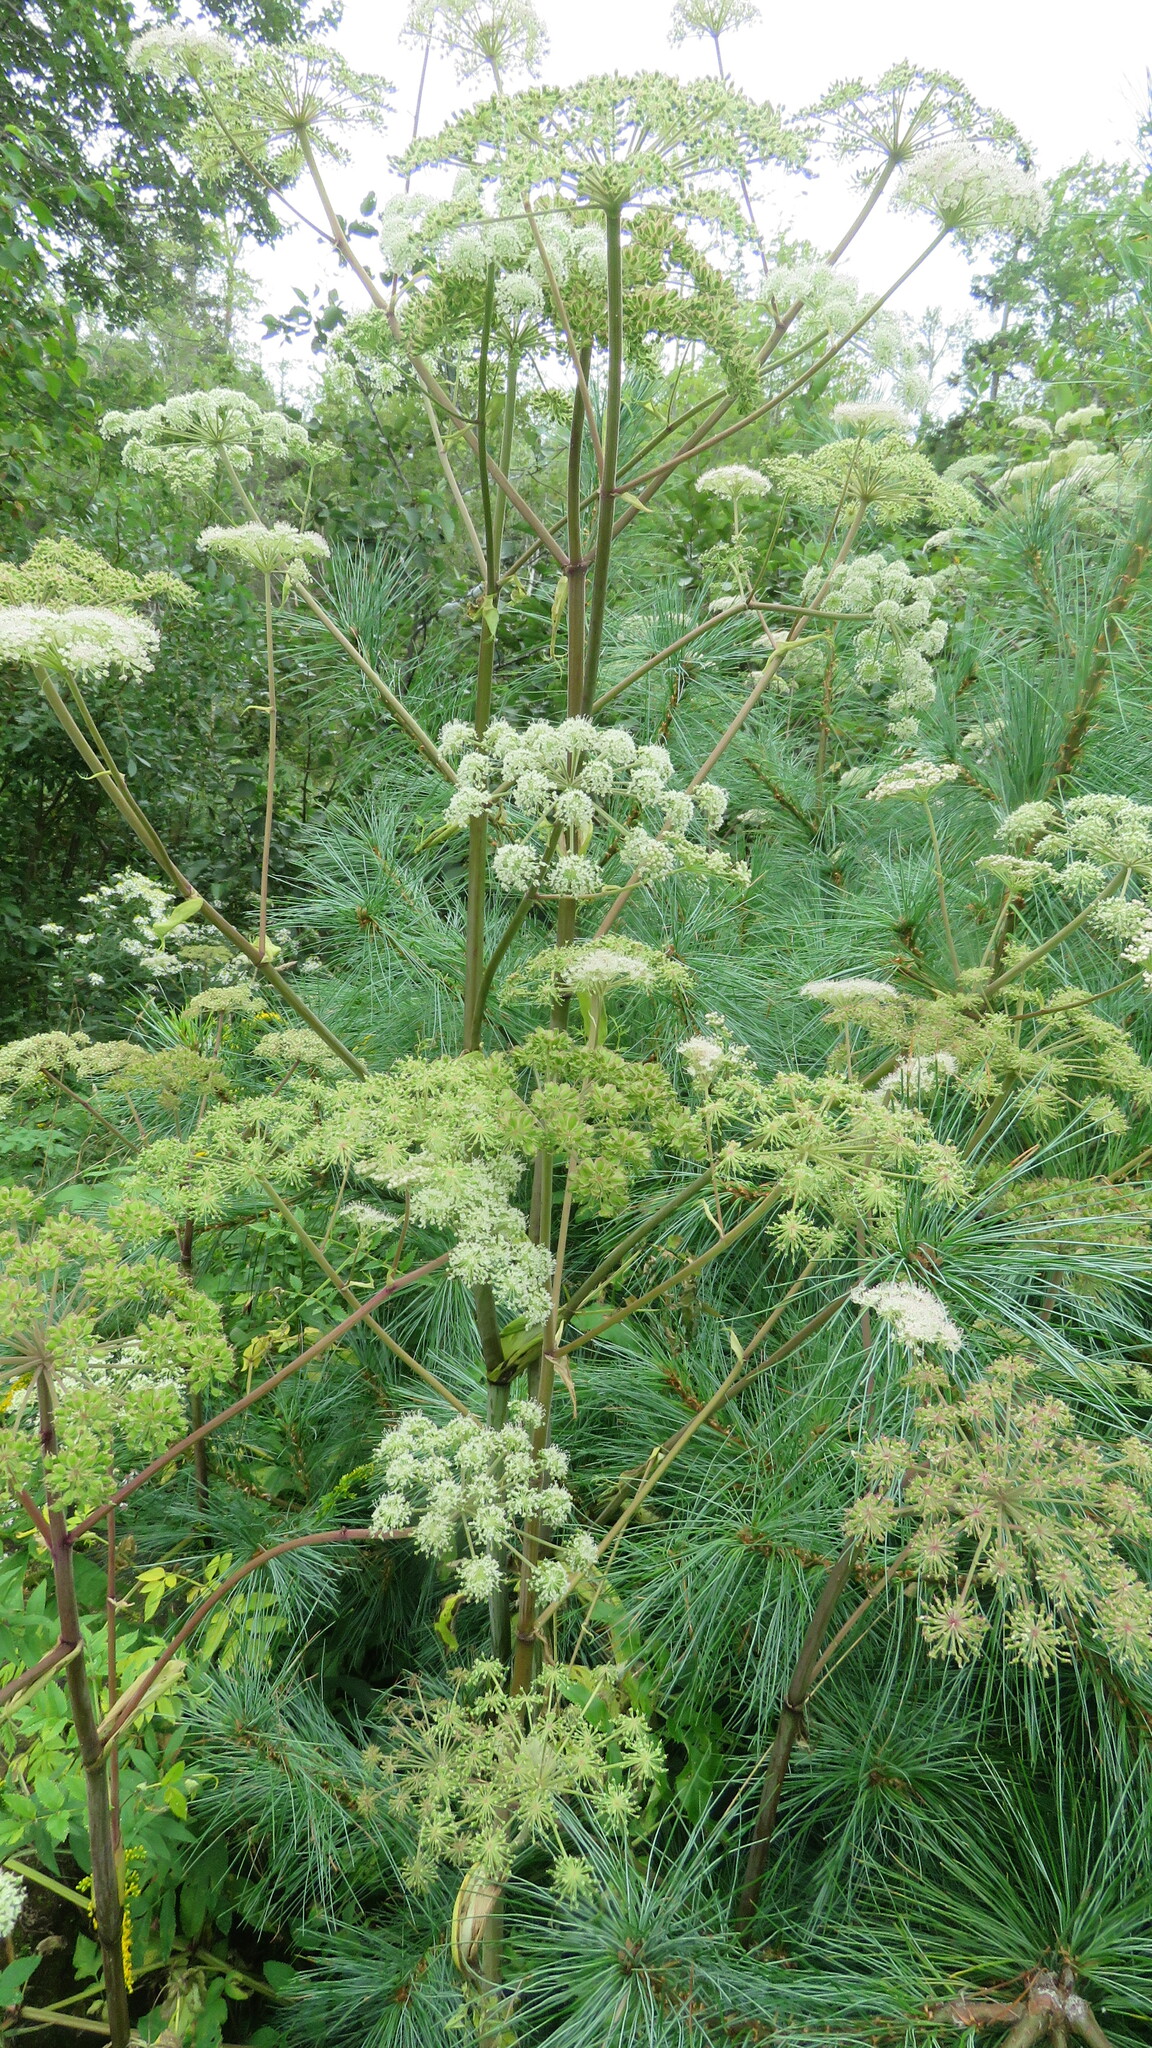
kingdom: Plantae
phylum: Tracheophyta
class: Magnoliopsida
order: Apiales
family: Apiaceae
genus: Angelica
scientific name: Angelica sylvestris
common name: Wild angelica
